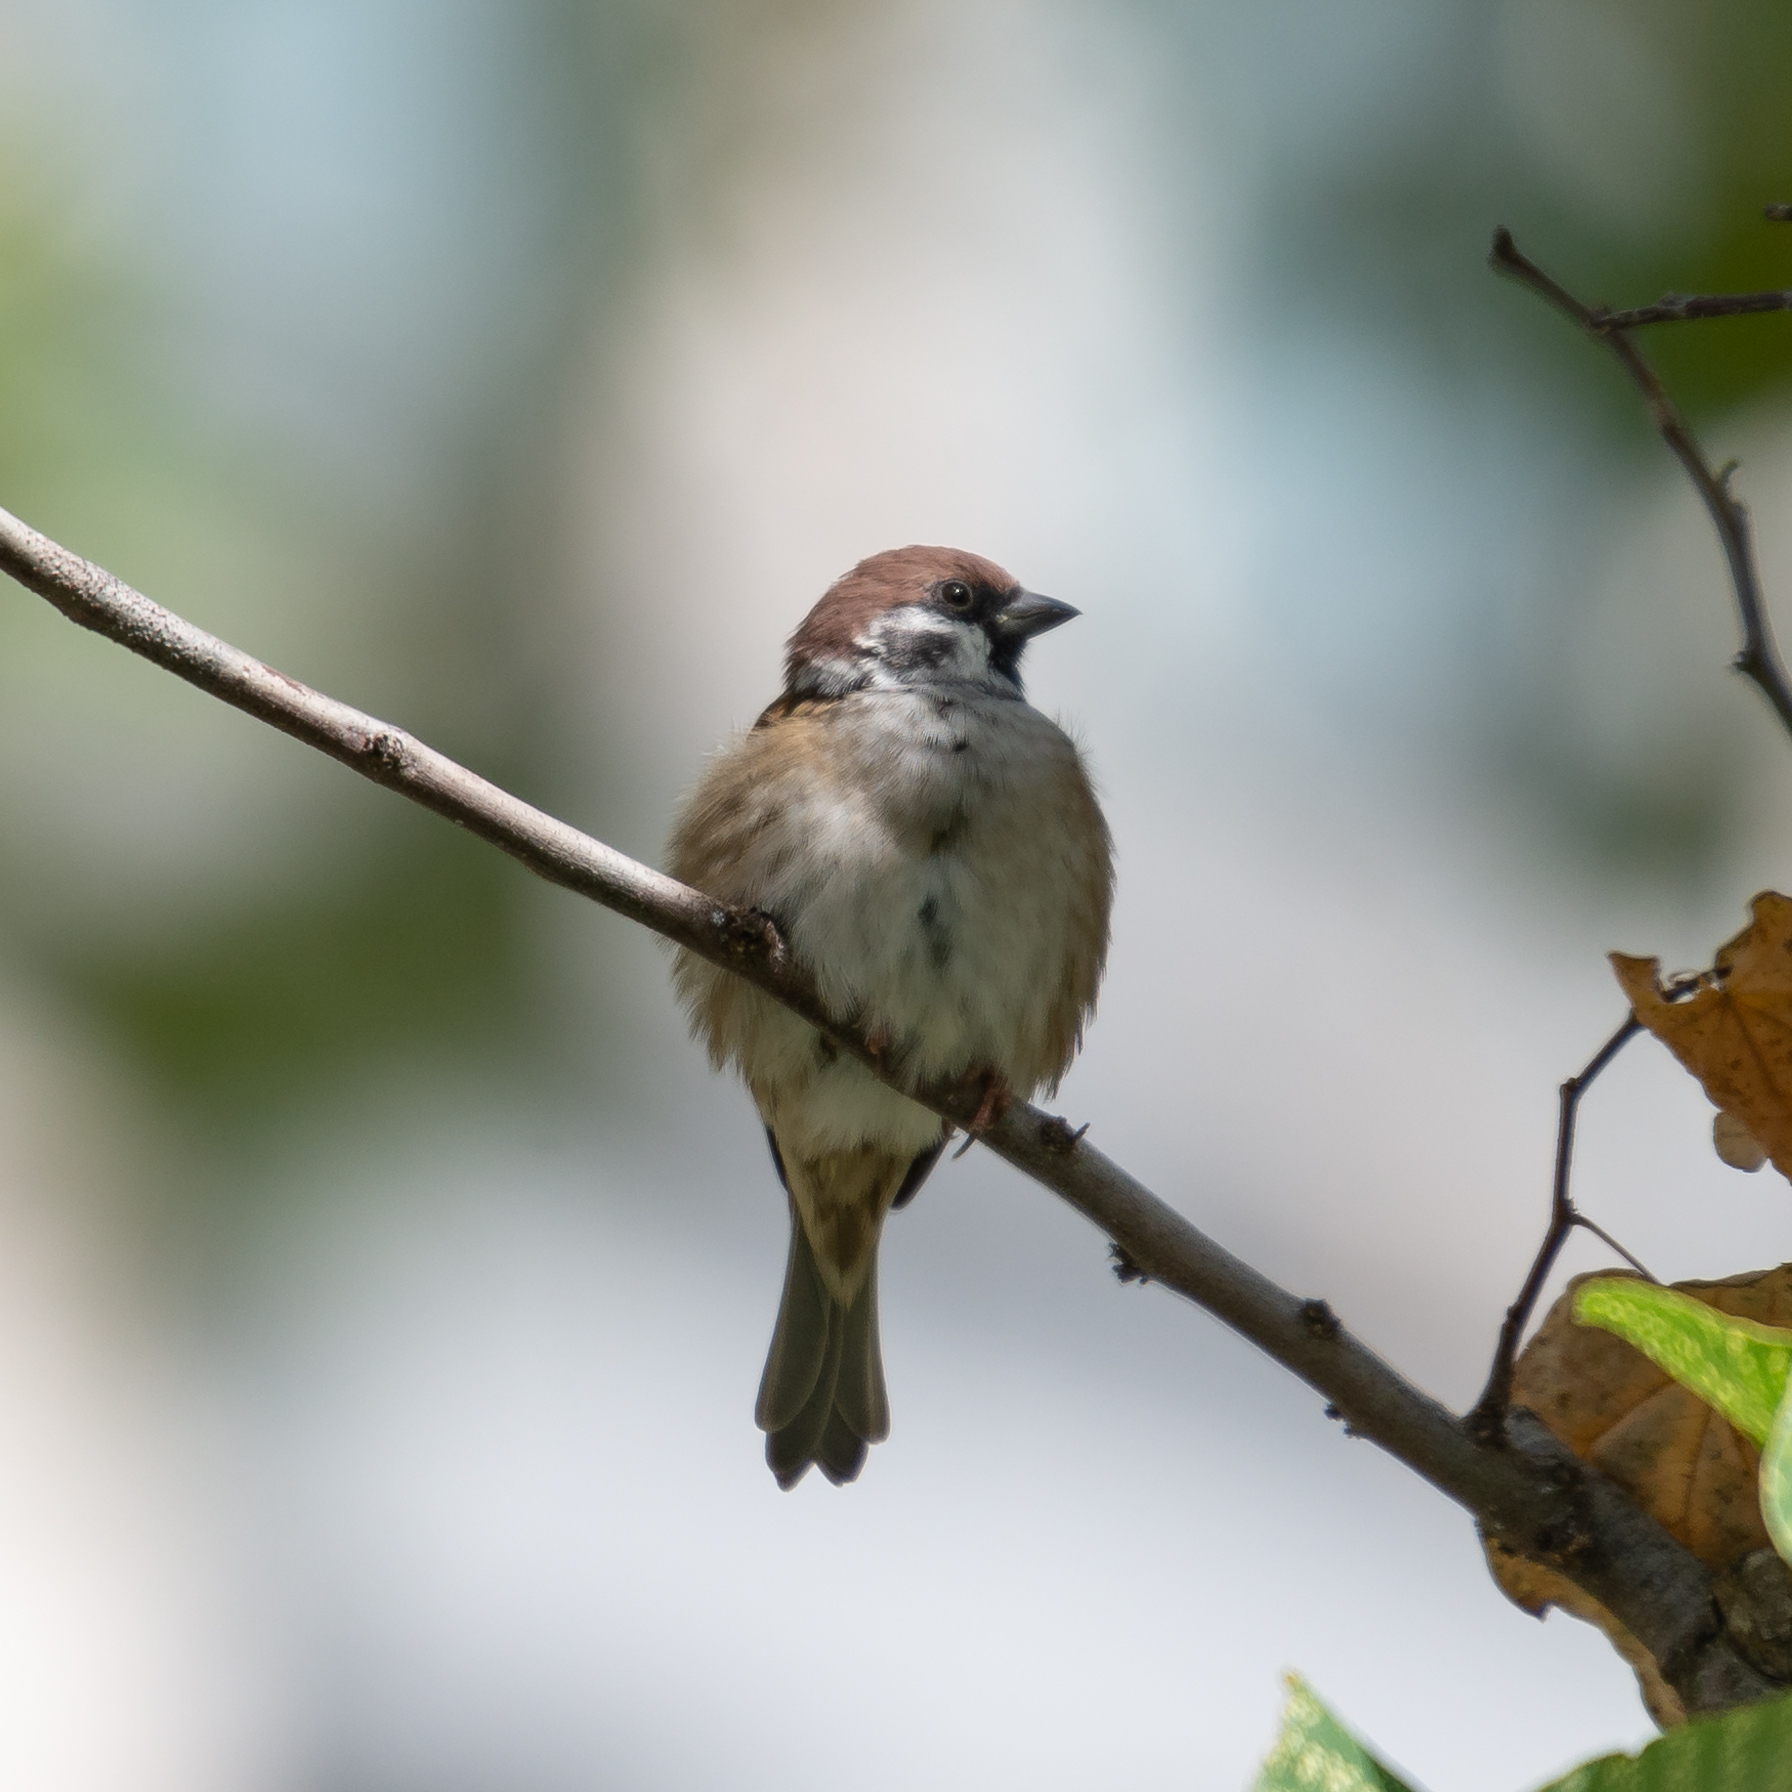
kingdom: Animalia
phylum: Chordata
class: Aves
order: Passeriformes
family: Passeridae
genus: Passer
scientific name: Passer montanus
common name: Eurasian tree sparrow
